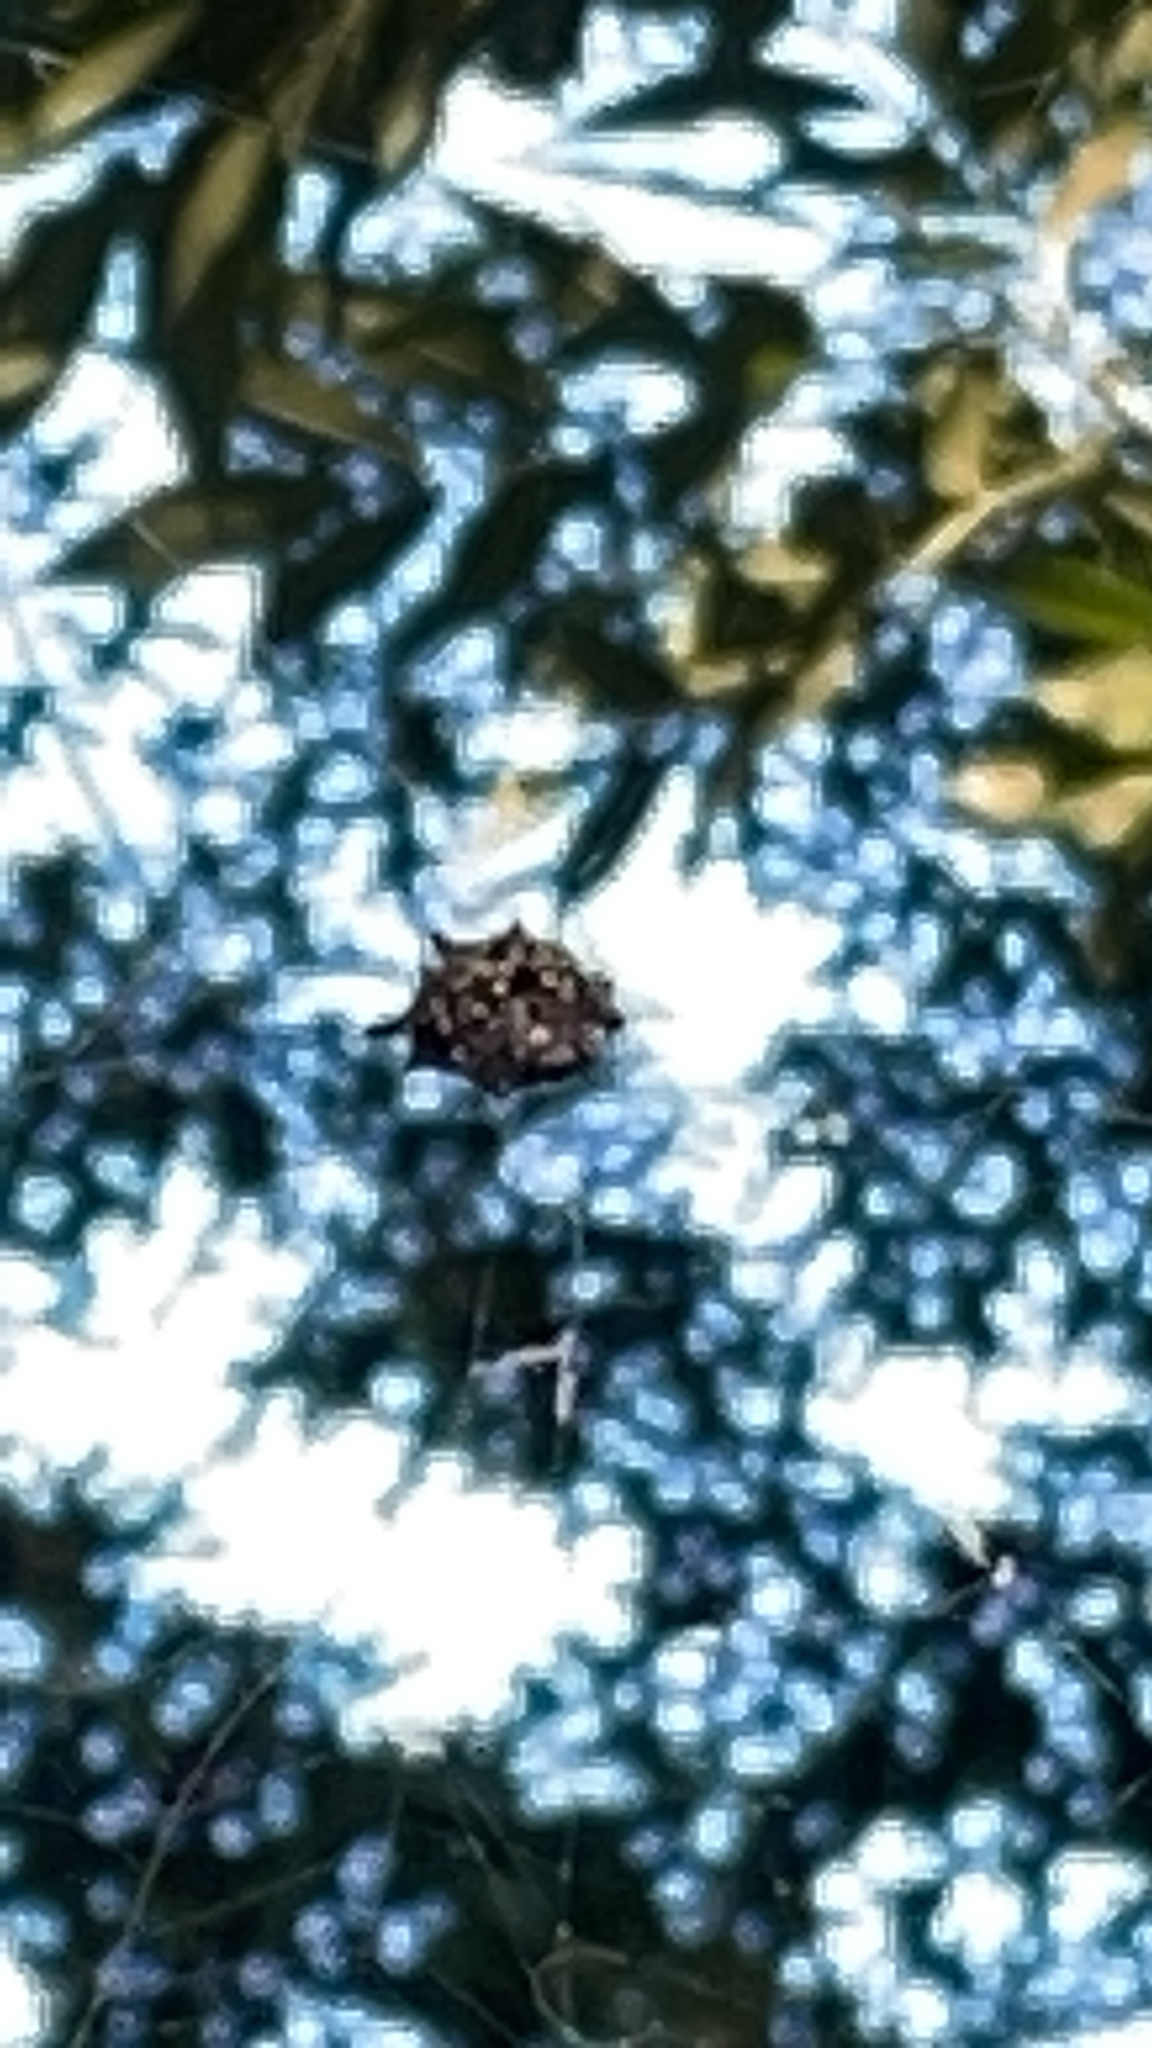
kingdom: Animalia
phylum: Arthropoda
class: Arachnida
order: Araneae
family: Araneidae
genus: Gasteracantha
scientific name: Gasteracantha cancriformis
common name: Orb weavers
